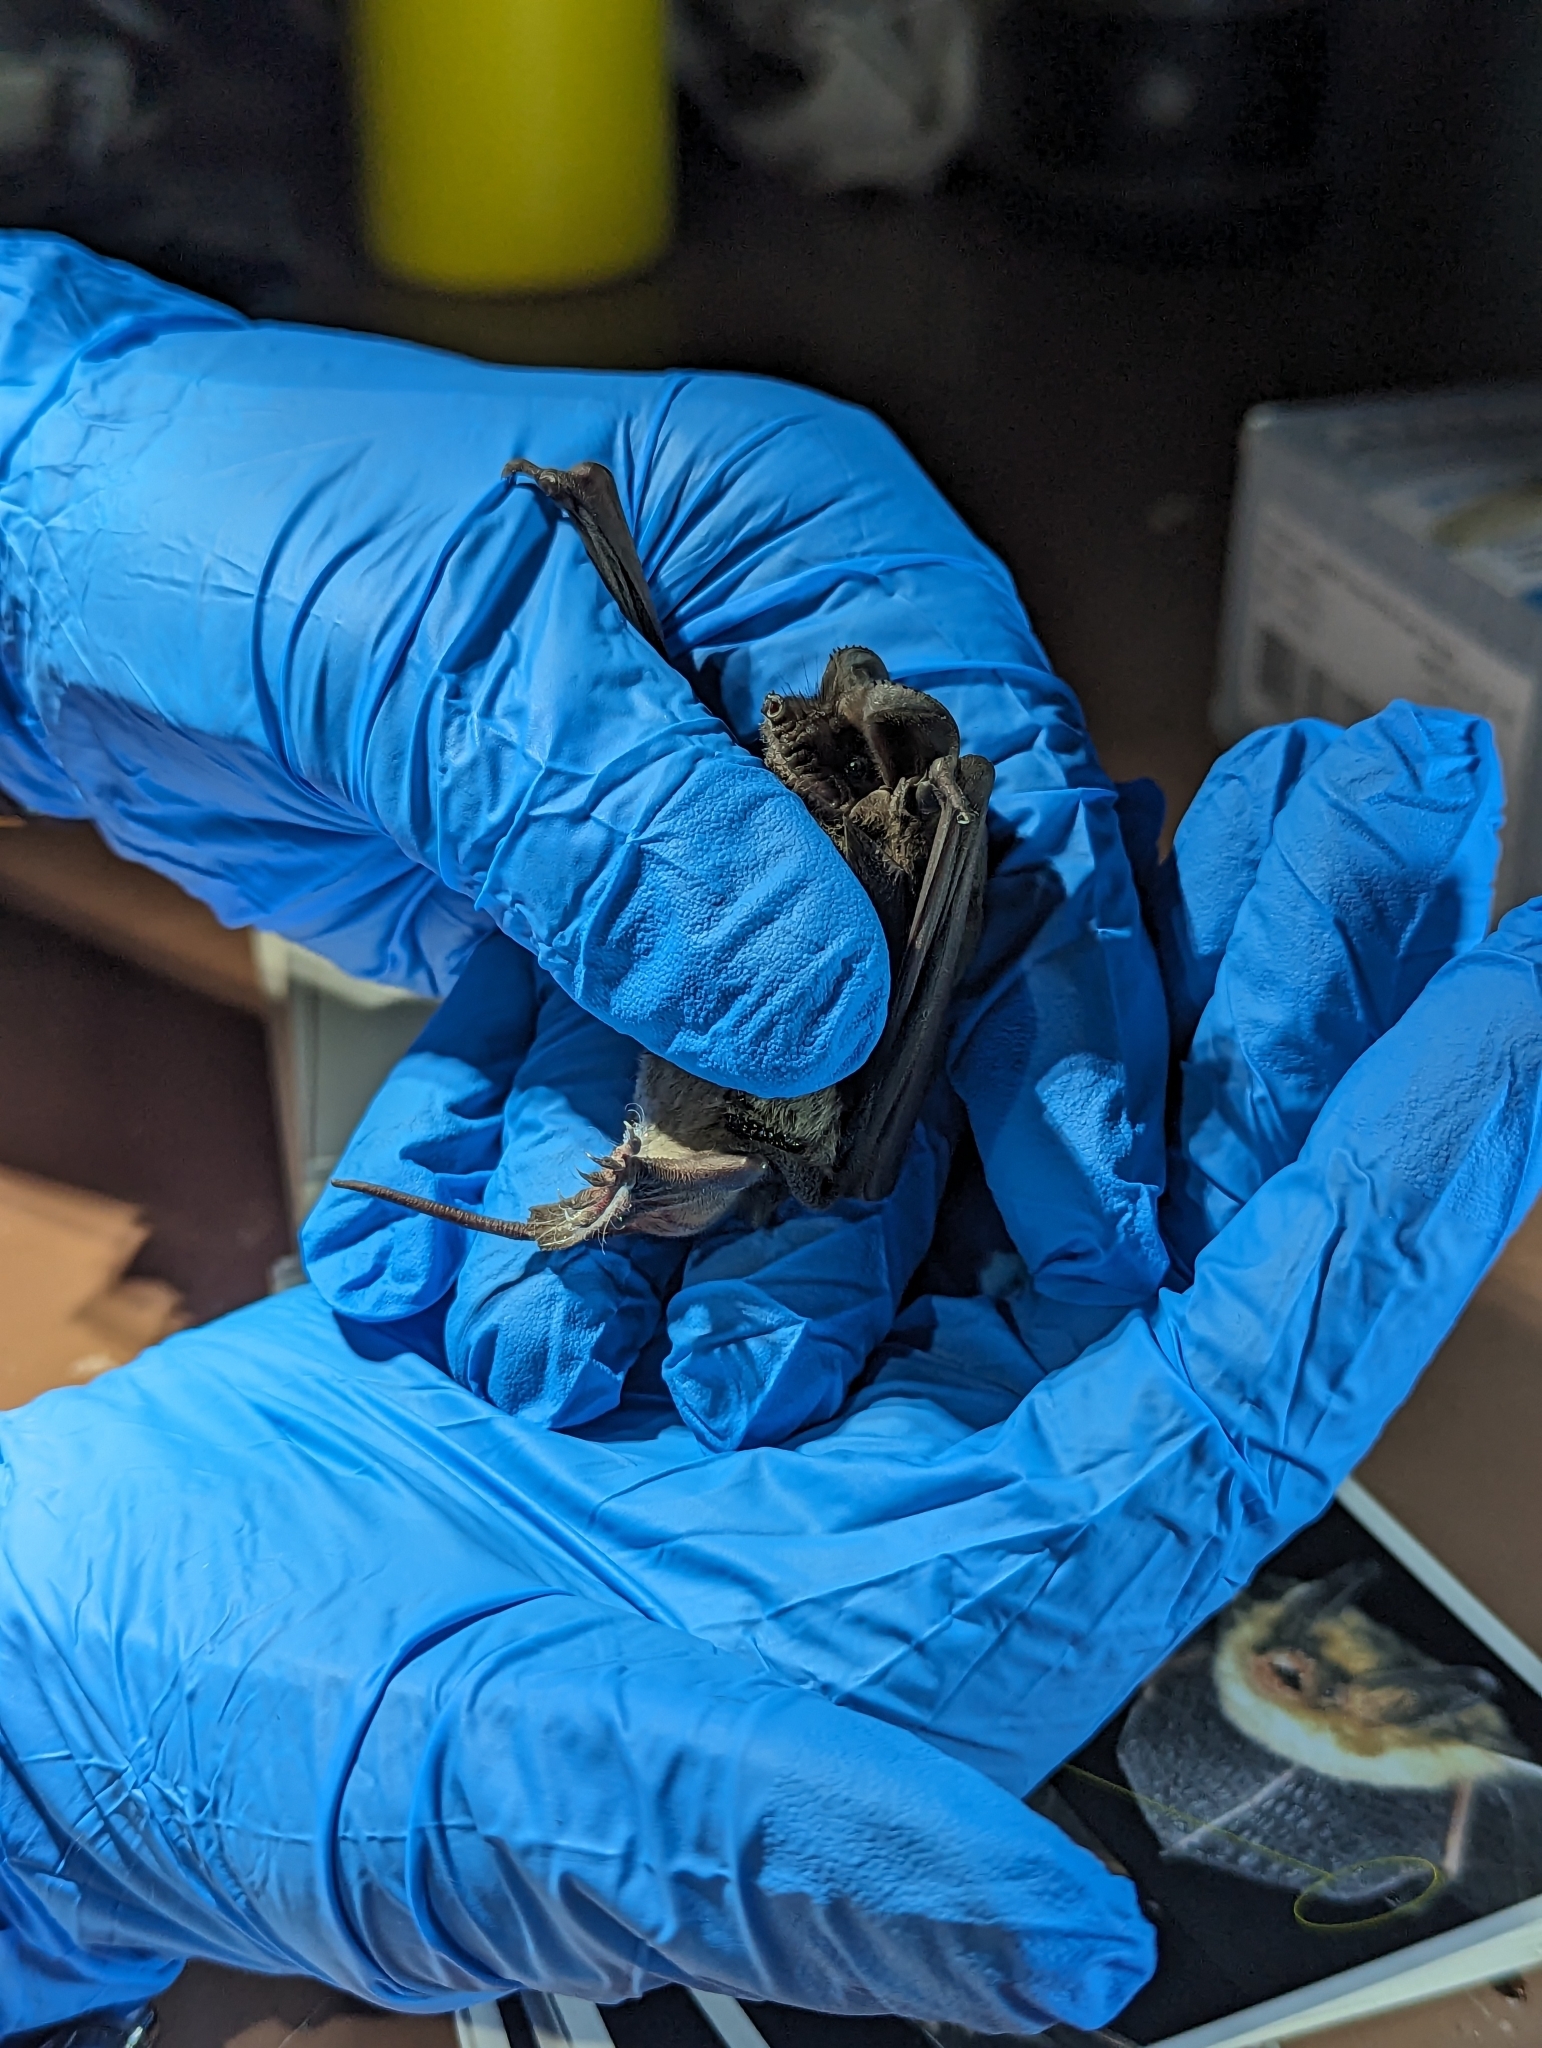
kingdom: Animalia
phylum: Chordata
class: Mammalia
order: Chiroptera
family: Molossidae
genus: Tadarida
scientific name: Tadarida brasiliensis
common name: Mexican free-tailed bat
